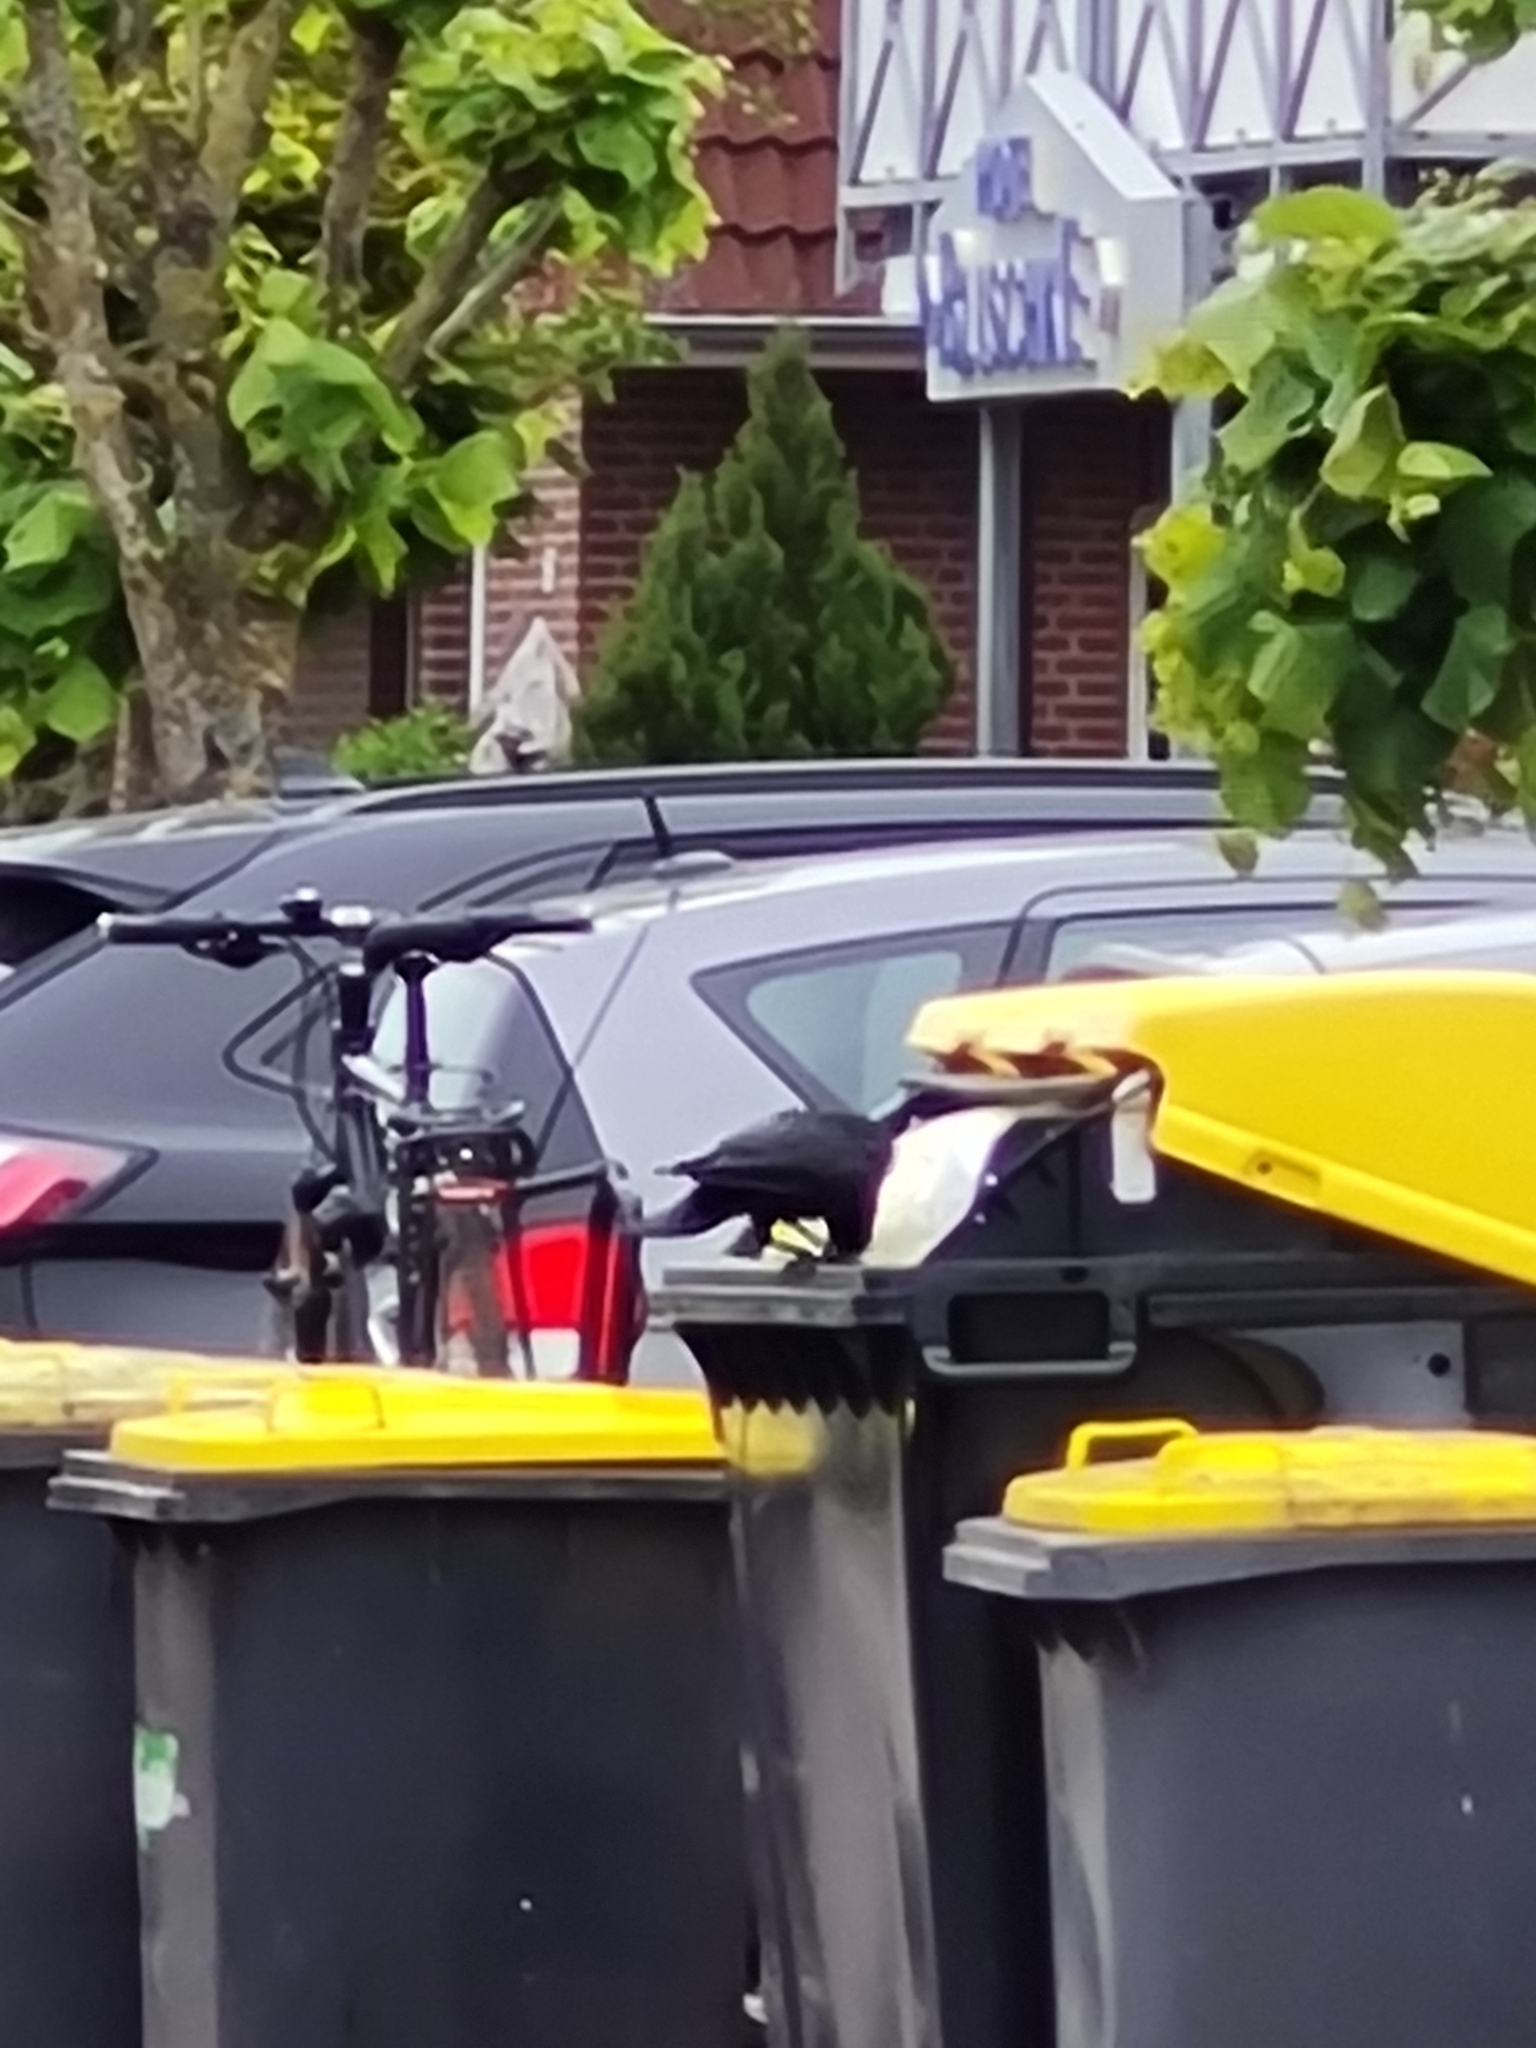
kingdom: Animalia
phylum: Chordata
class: Aves
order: Passeriformes
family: Corvidae
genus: Corvus
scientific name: Corvus corone
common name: Carrion crow
